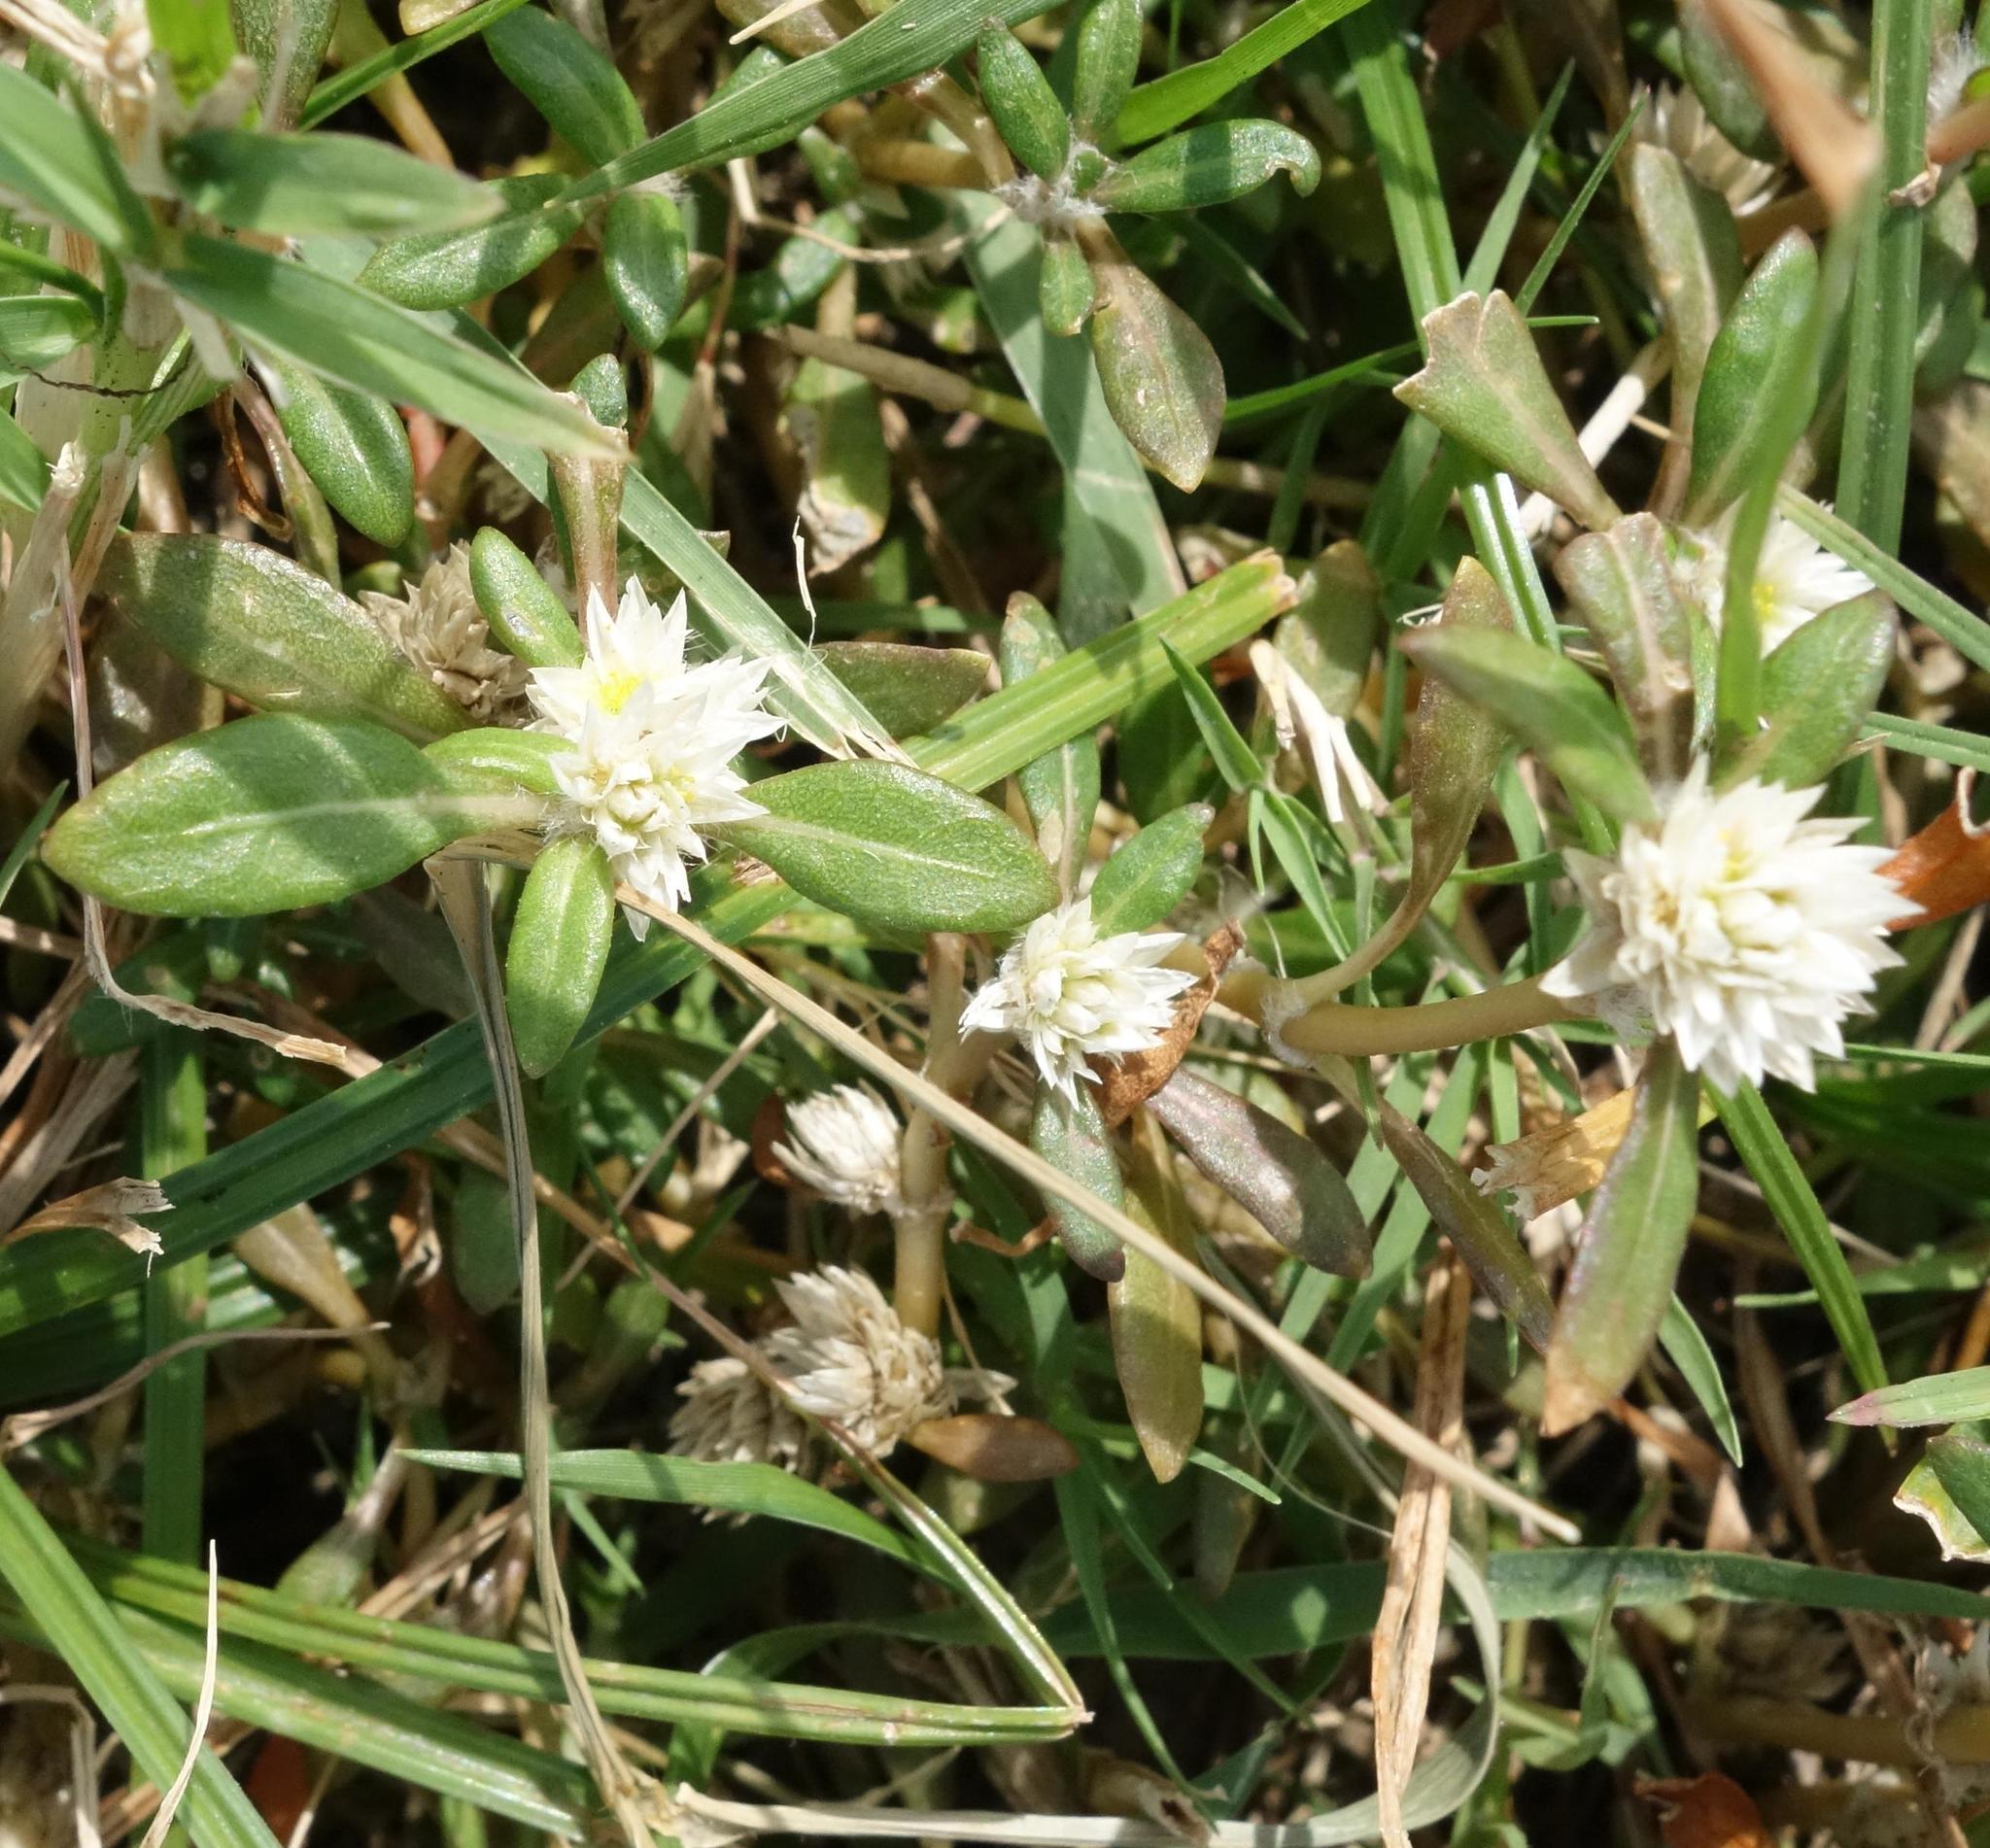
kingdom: Plantae
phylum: Tracheophyta
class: Magnoliopsida
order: Caryophyllales
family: Amaranthaceae
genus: Gomphrena
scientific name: Gomphrena serrata
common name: Arrasa con todo
